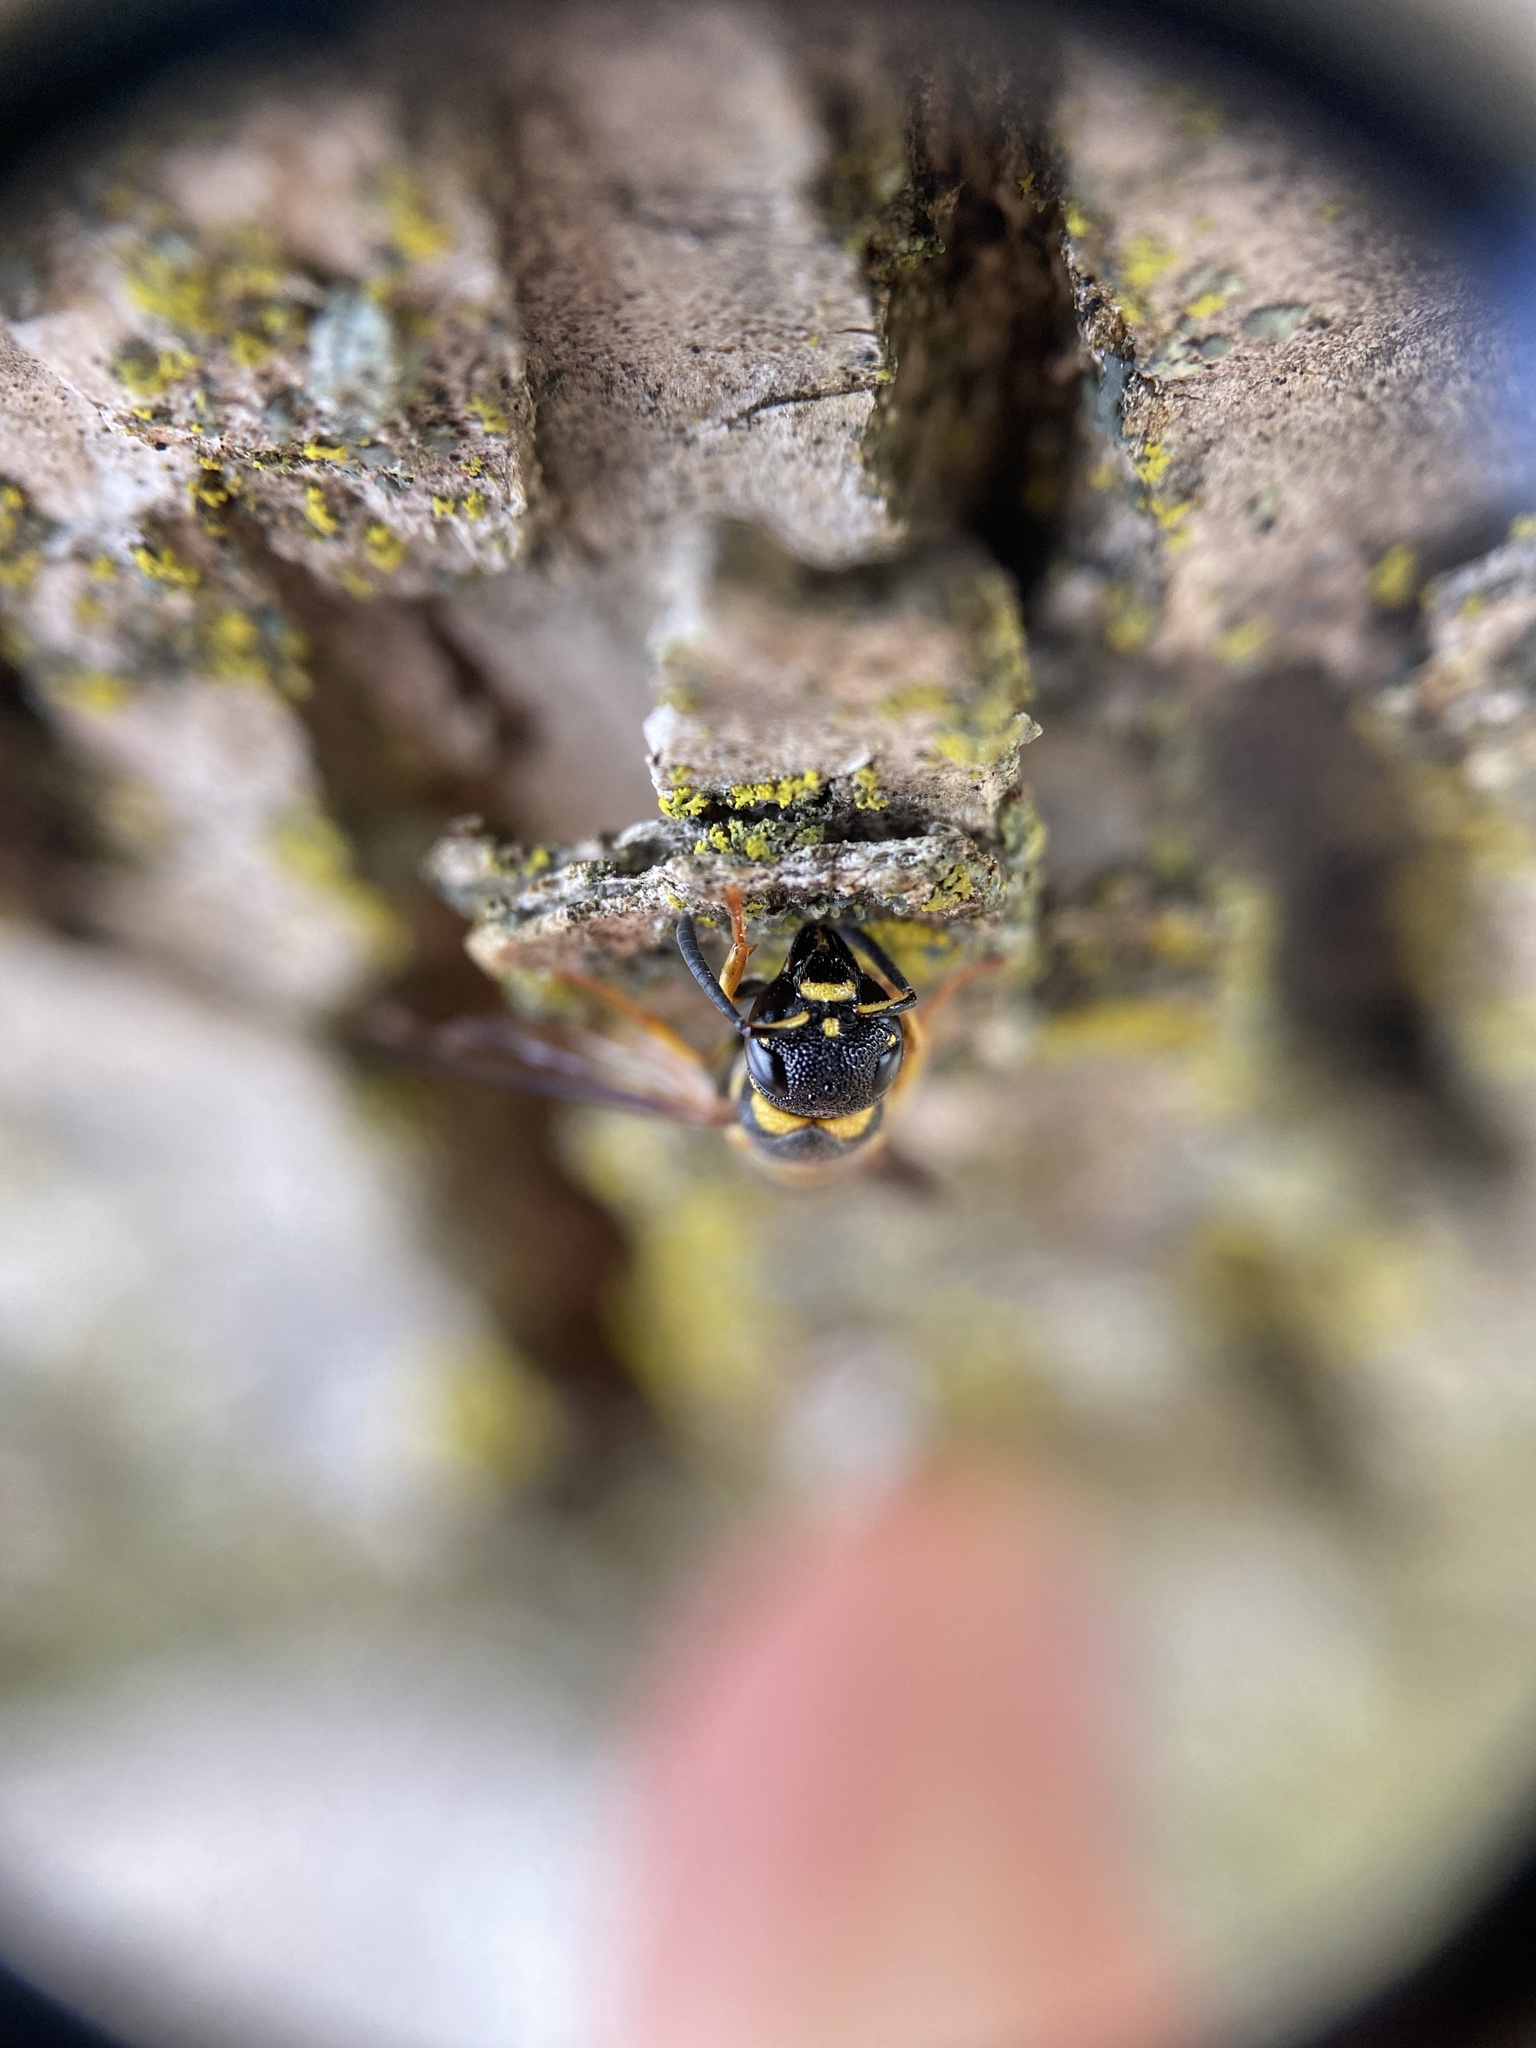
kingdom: Animalia
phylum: Arthropoda
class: Insecta
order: Hymenoptera
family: Eumenidae
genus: Parancistrocerus
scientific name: Parancistrocerus perennis
